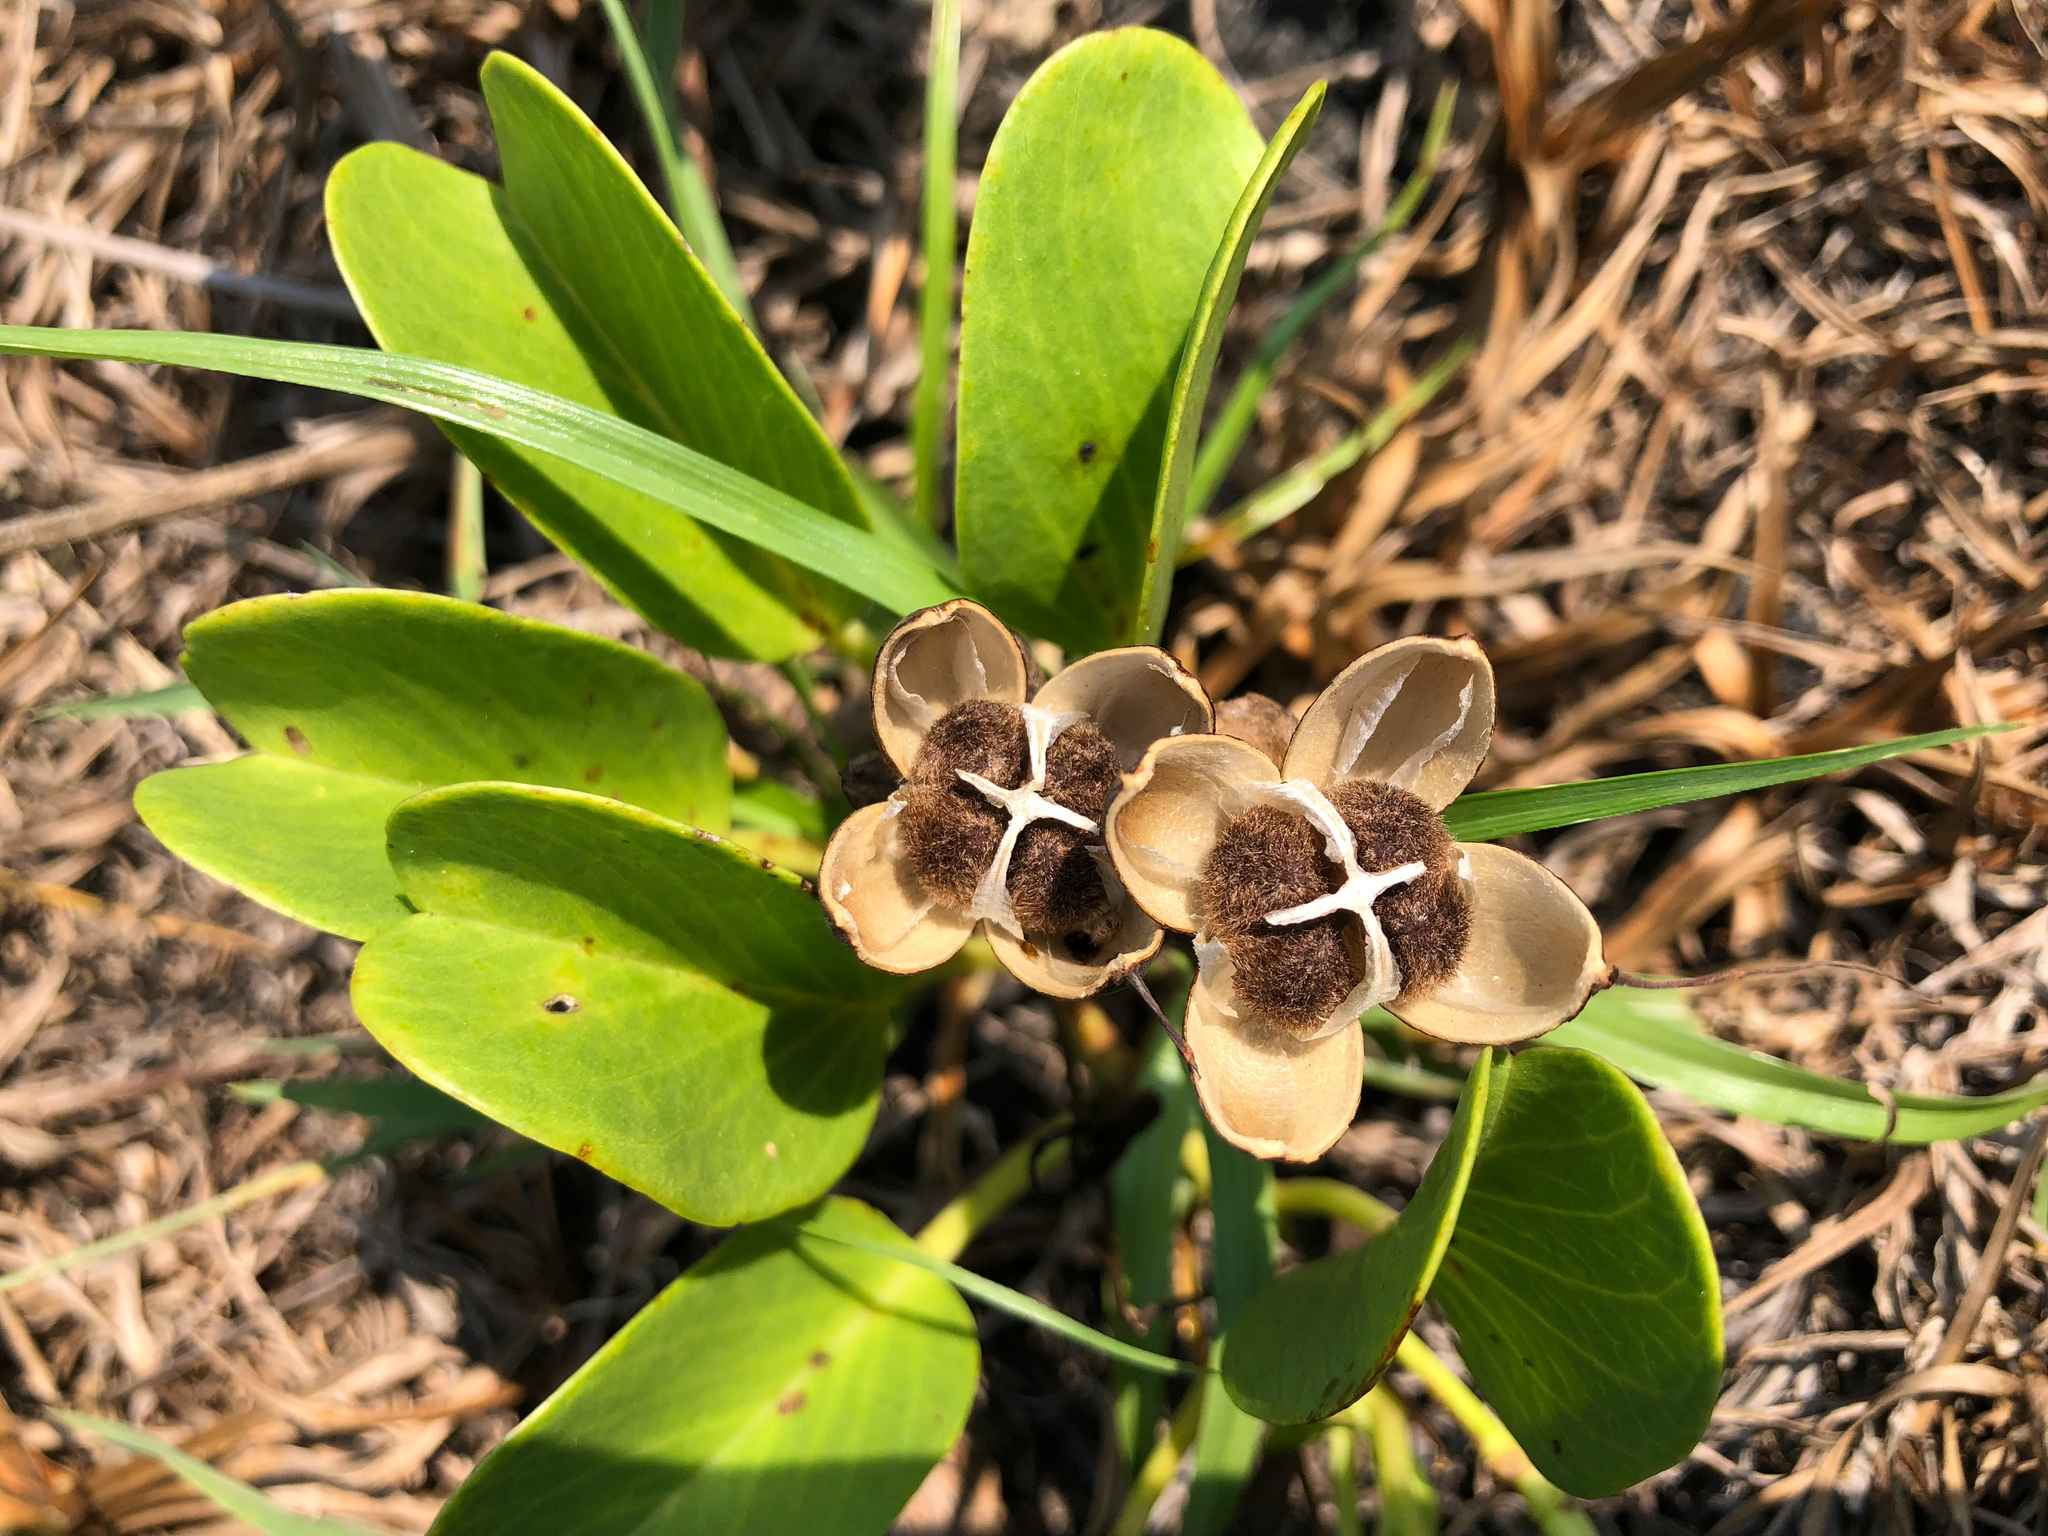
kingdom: Plantae
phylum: Tracheophyta
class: Magnoliopsida
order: Solanales
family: Convolvulaceae
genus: Ipomoea
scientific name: Ipomoea pes-caprae
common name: Beach morning glory
